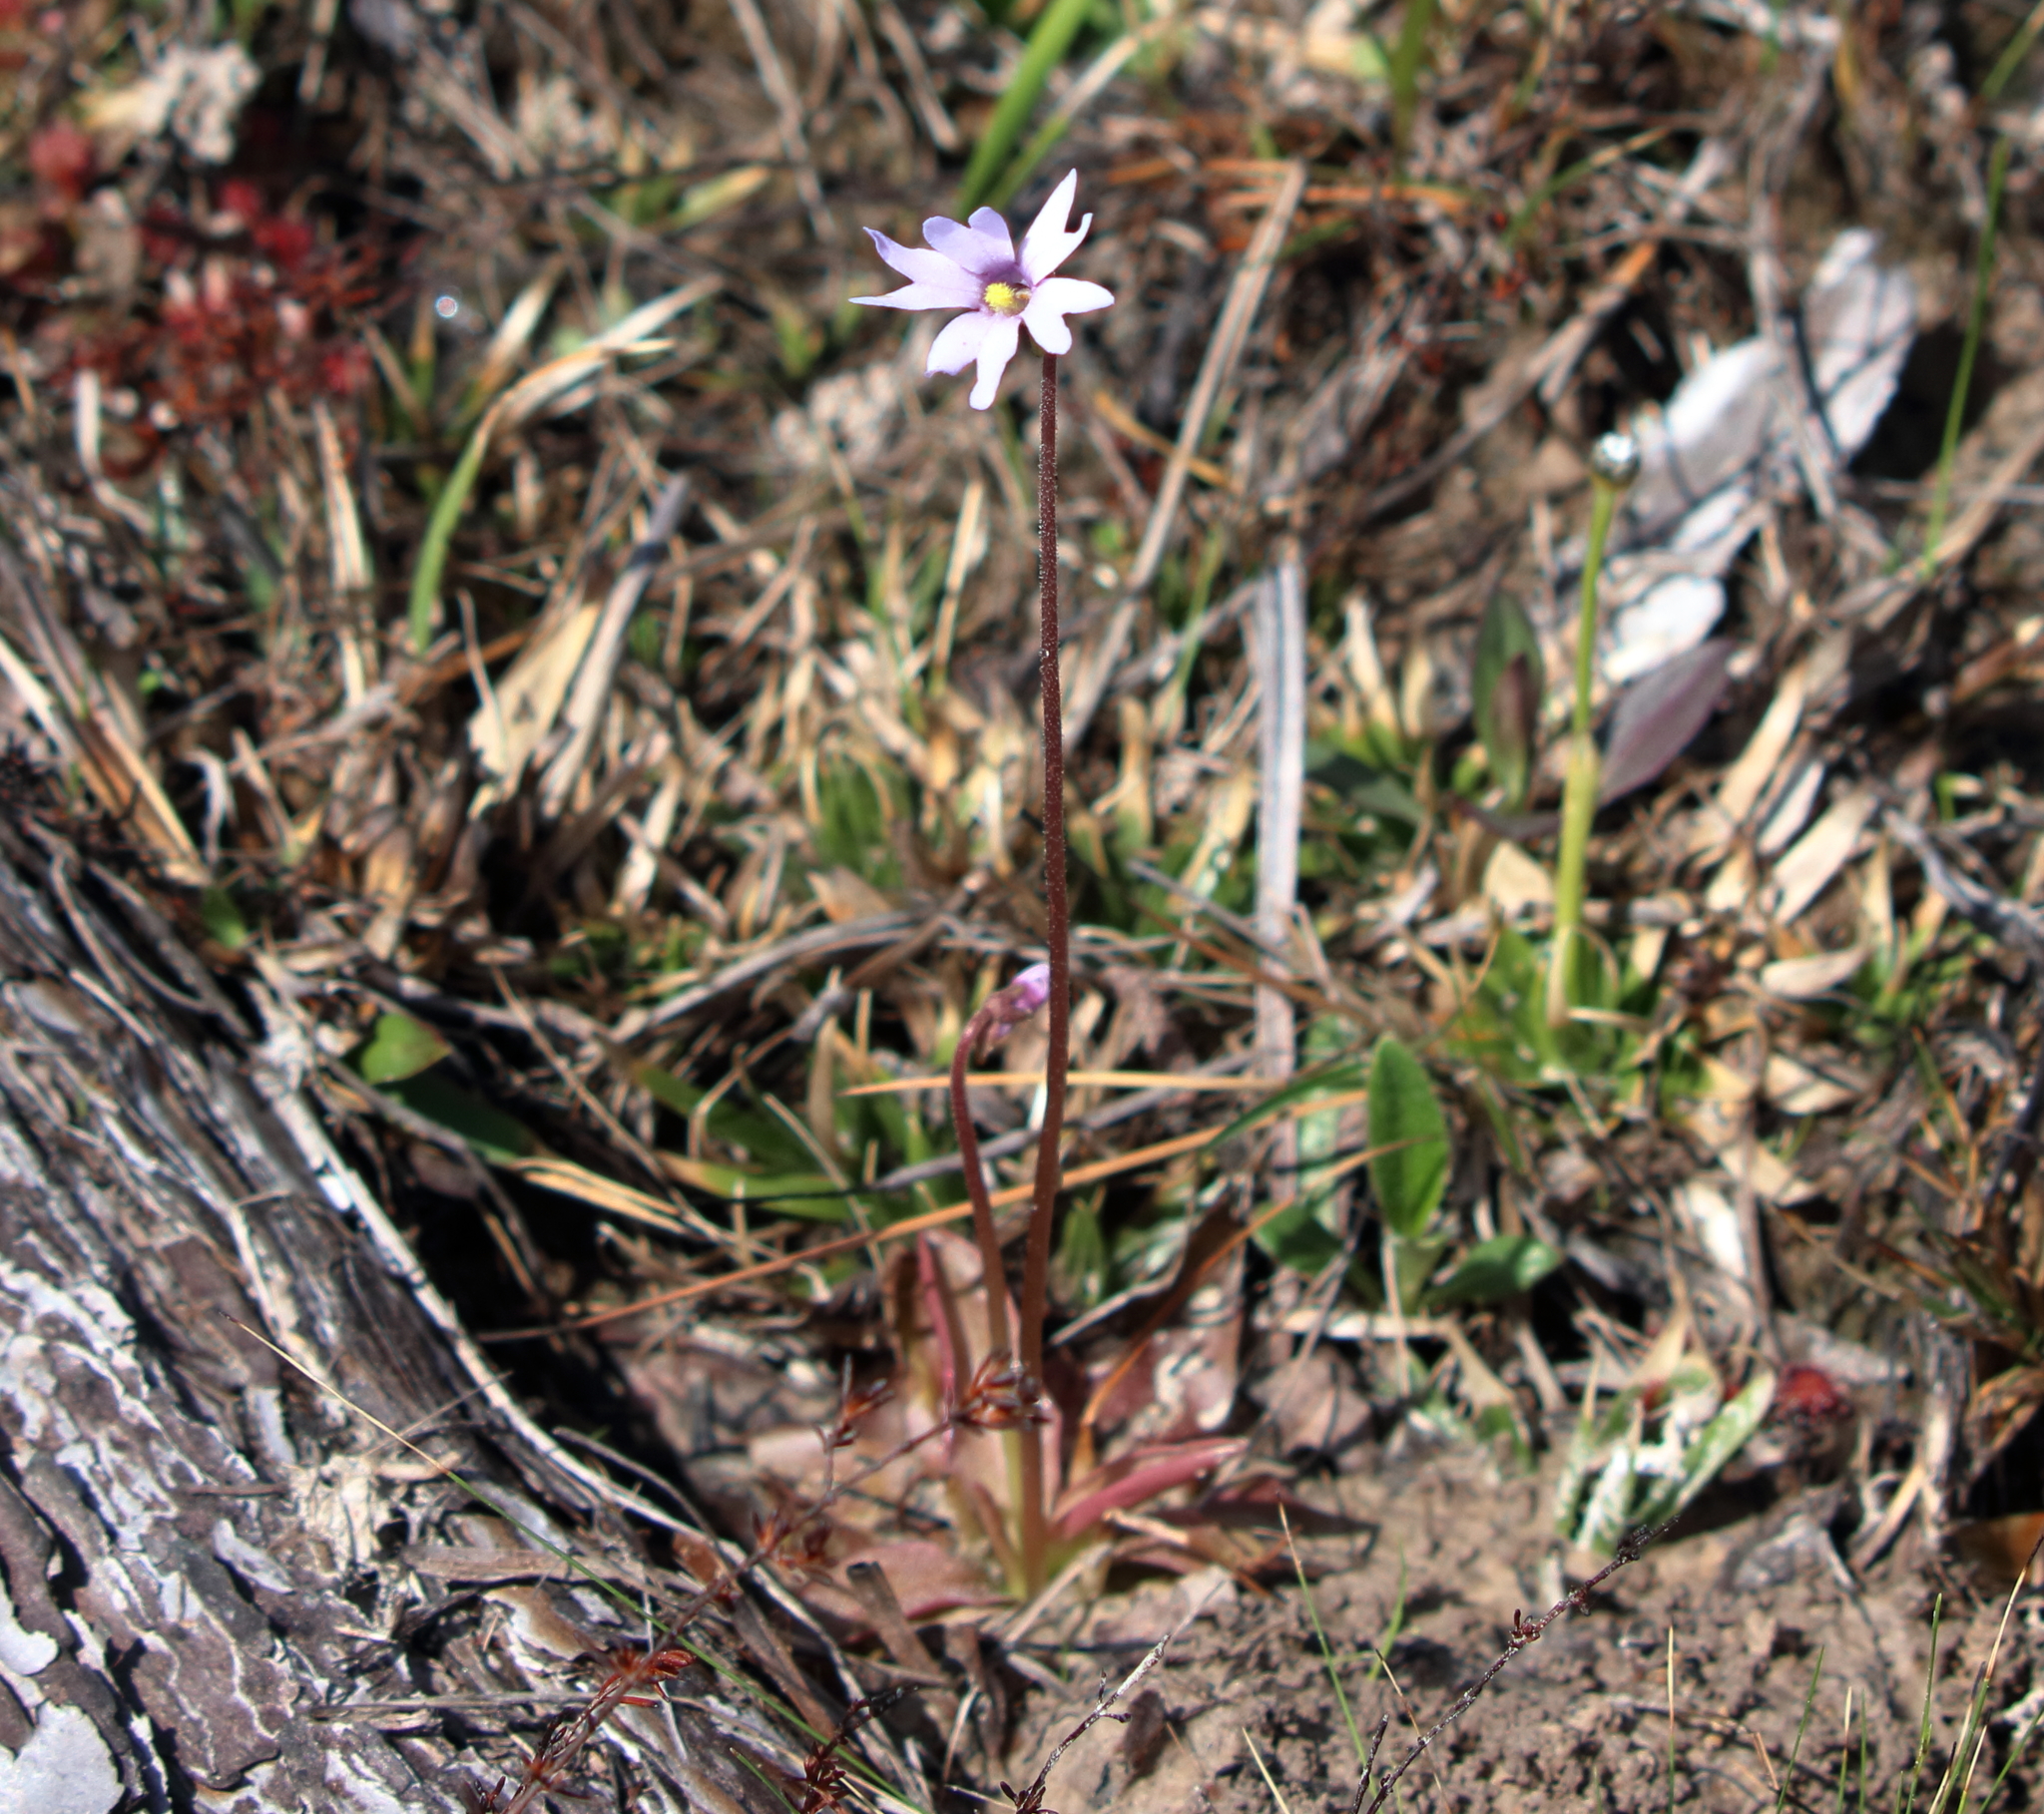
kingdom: Plantae
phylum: Tracheophyta
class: Magnoliopsida
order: Lamiales
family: Lentibulariaceae
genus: Pinguicula
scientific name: Pinguicula planifolia
